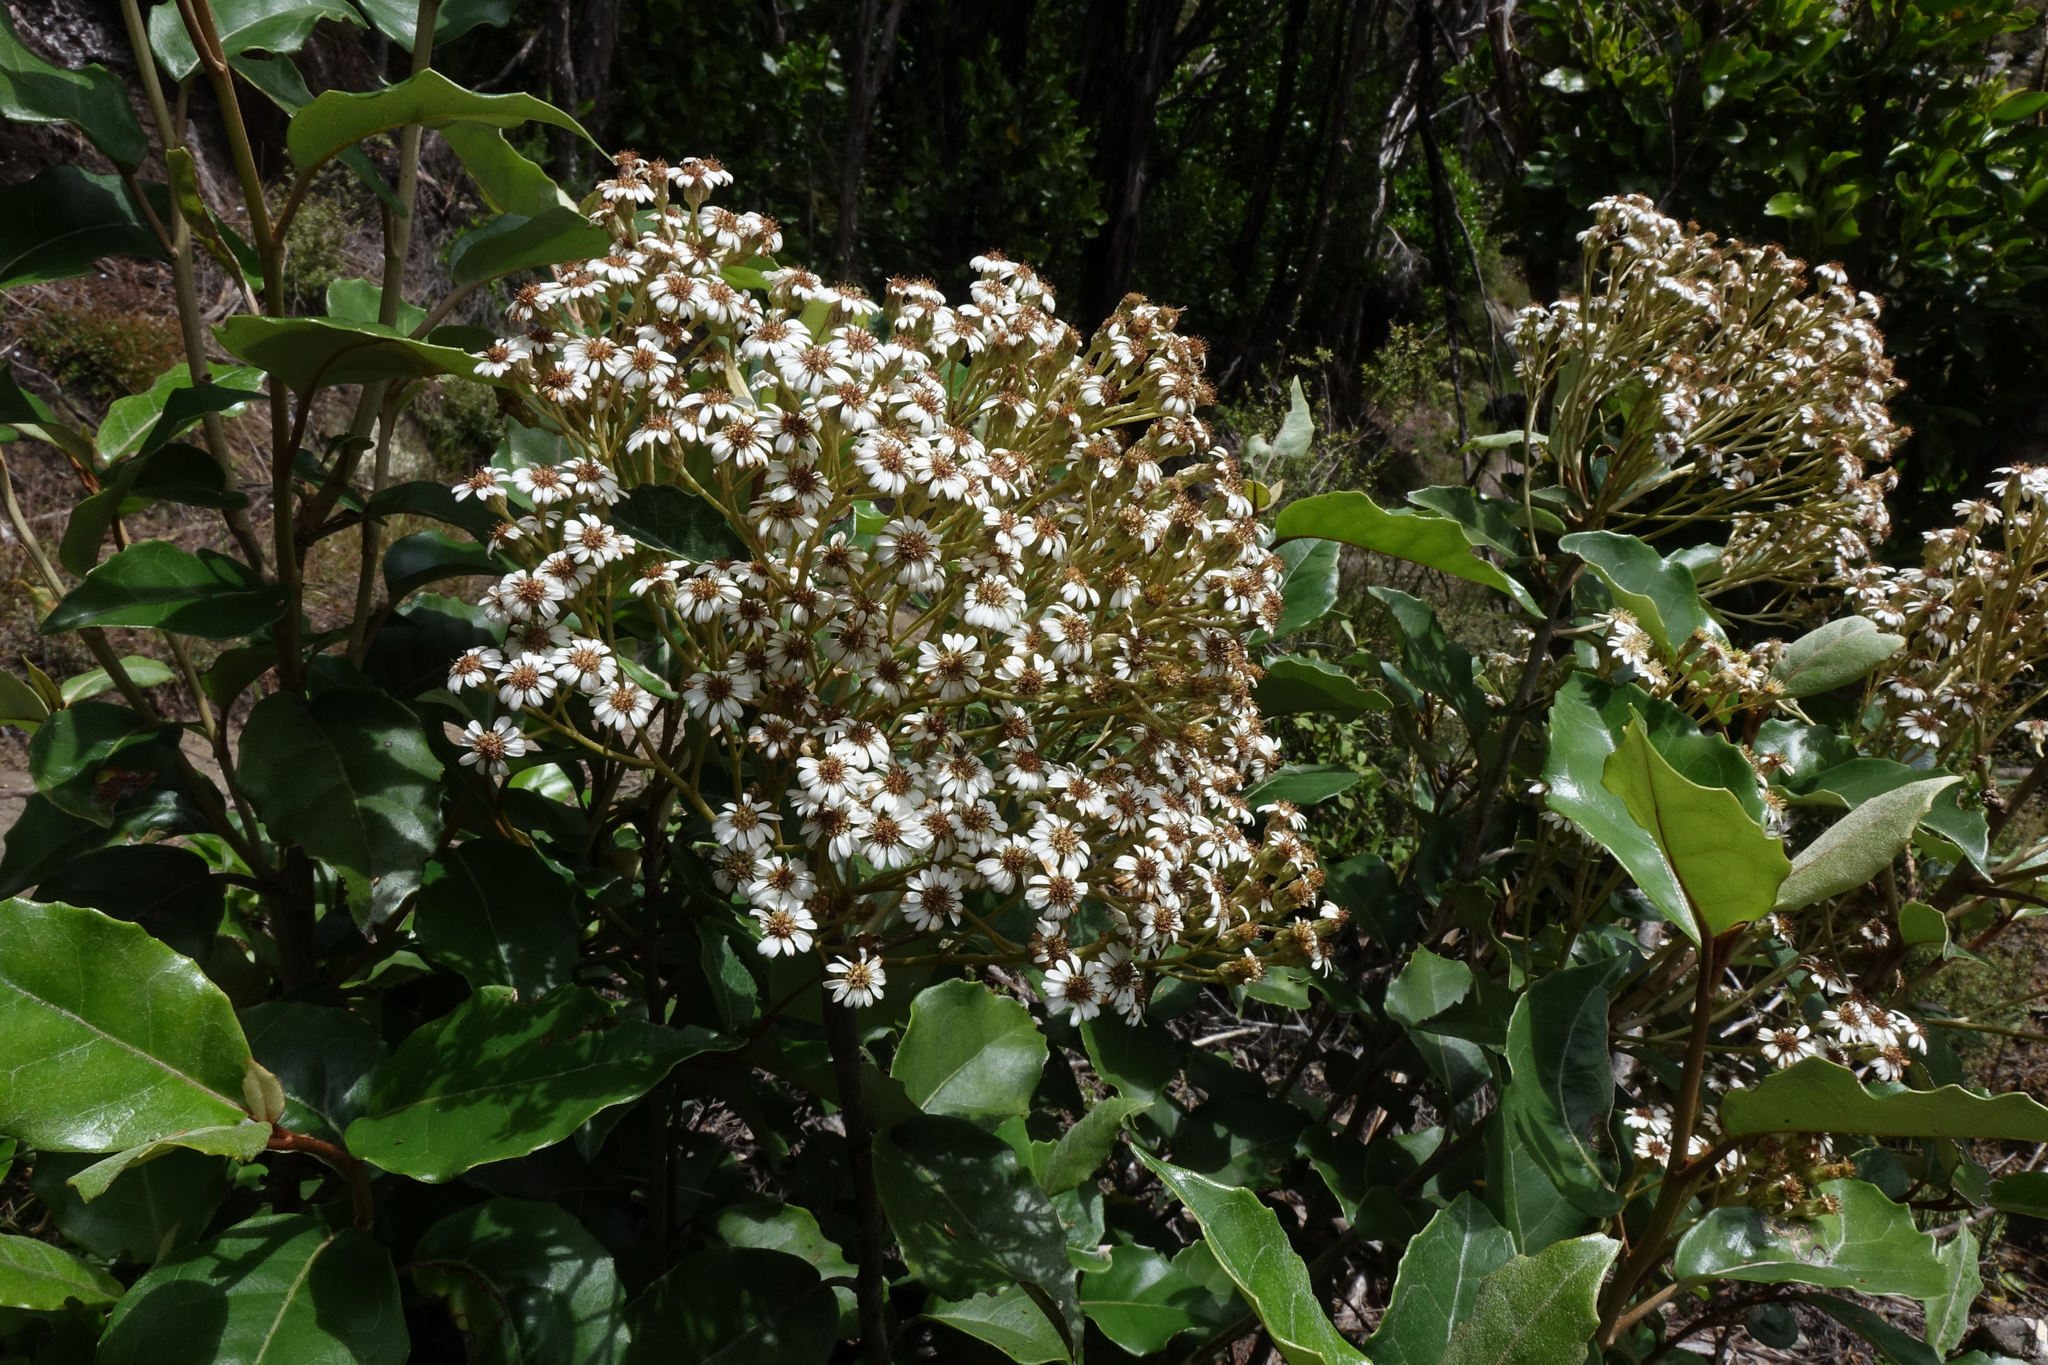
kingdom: Plantae
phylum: Tracheophyta
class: Magnoliopsida
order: Asterales
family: Asteraceae
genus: Olearia
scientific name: Olearia arborescens
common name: Glossy tree daisy
